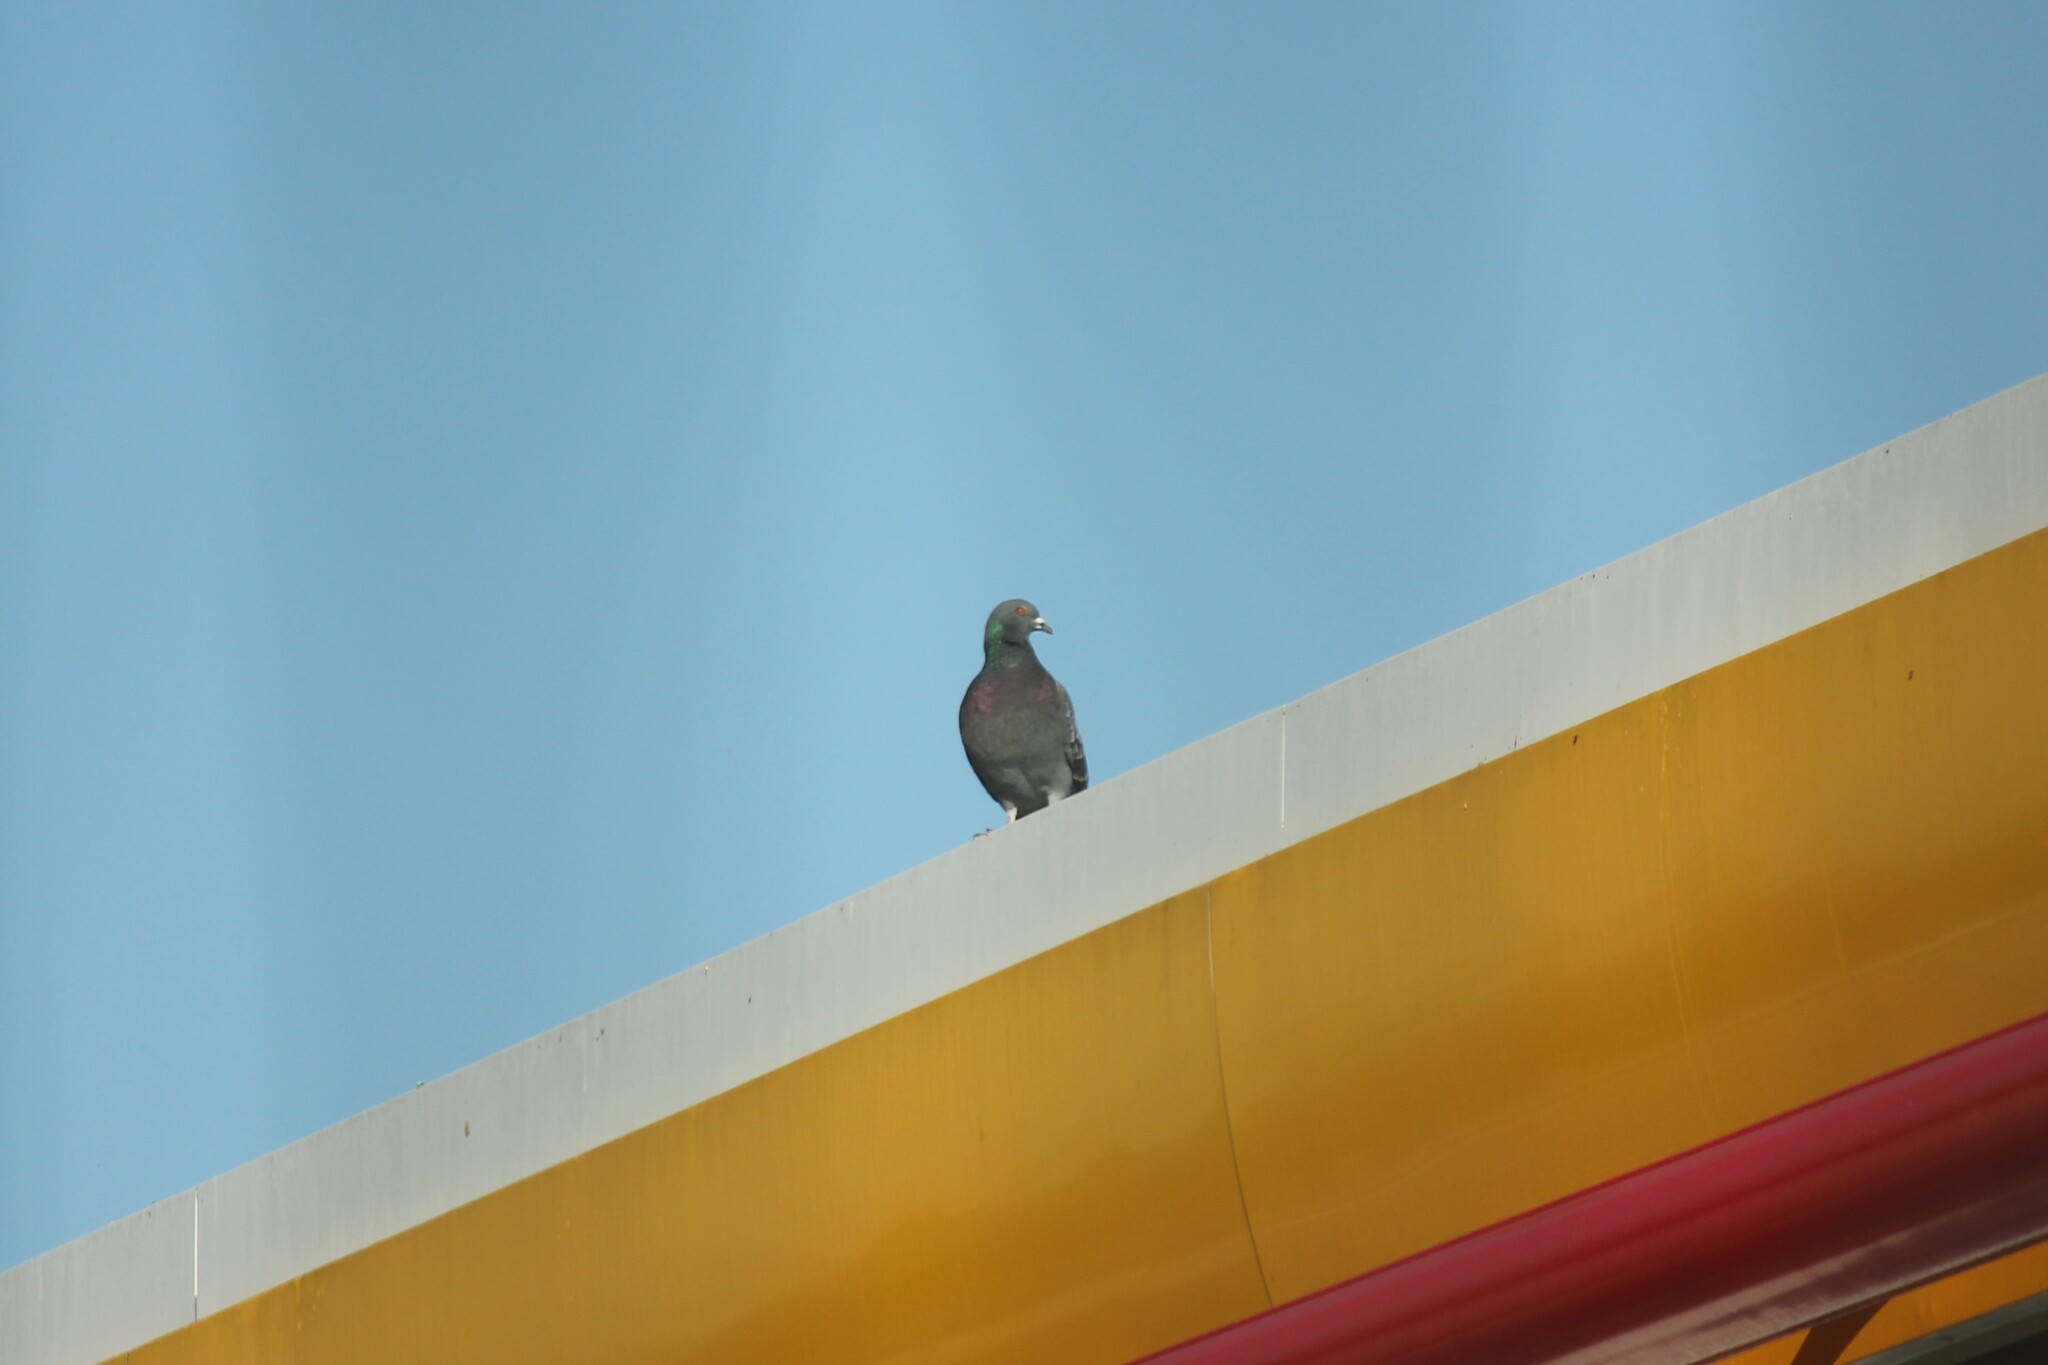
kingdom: Animalia
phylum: Chordata
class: Aves
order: Columbiformes
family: Columbidae
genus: Columba
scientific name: Columba livia
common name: Rock pigeon
